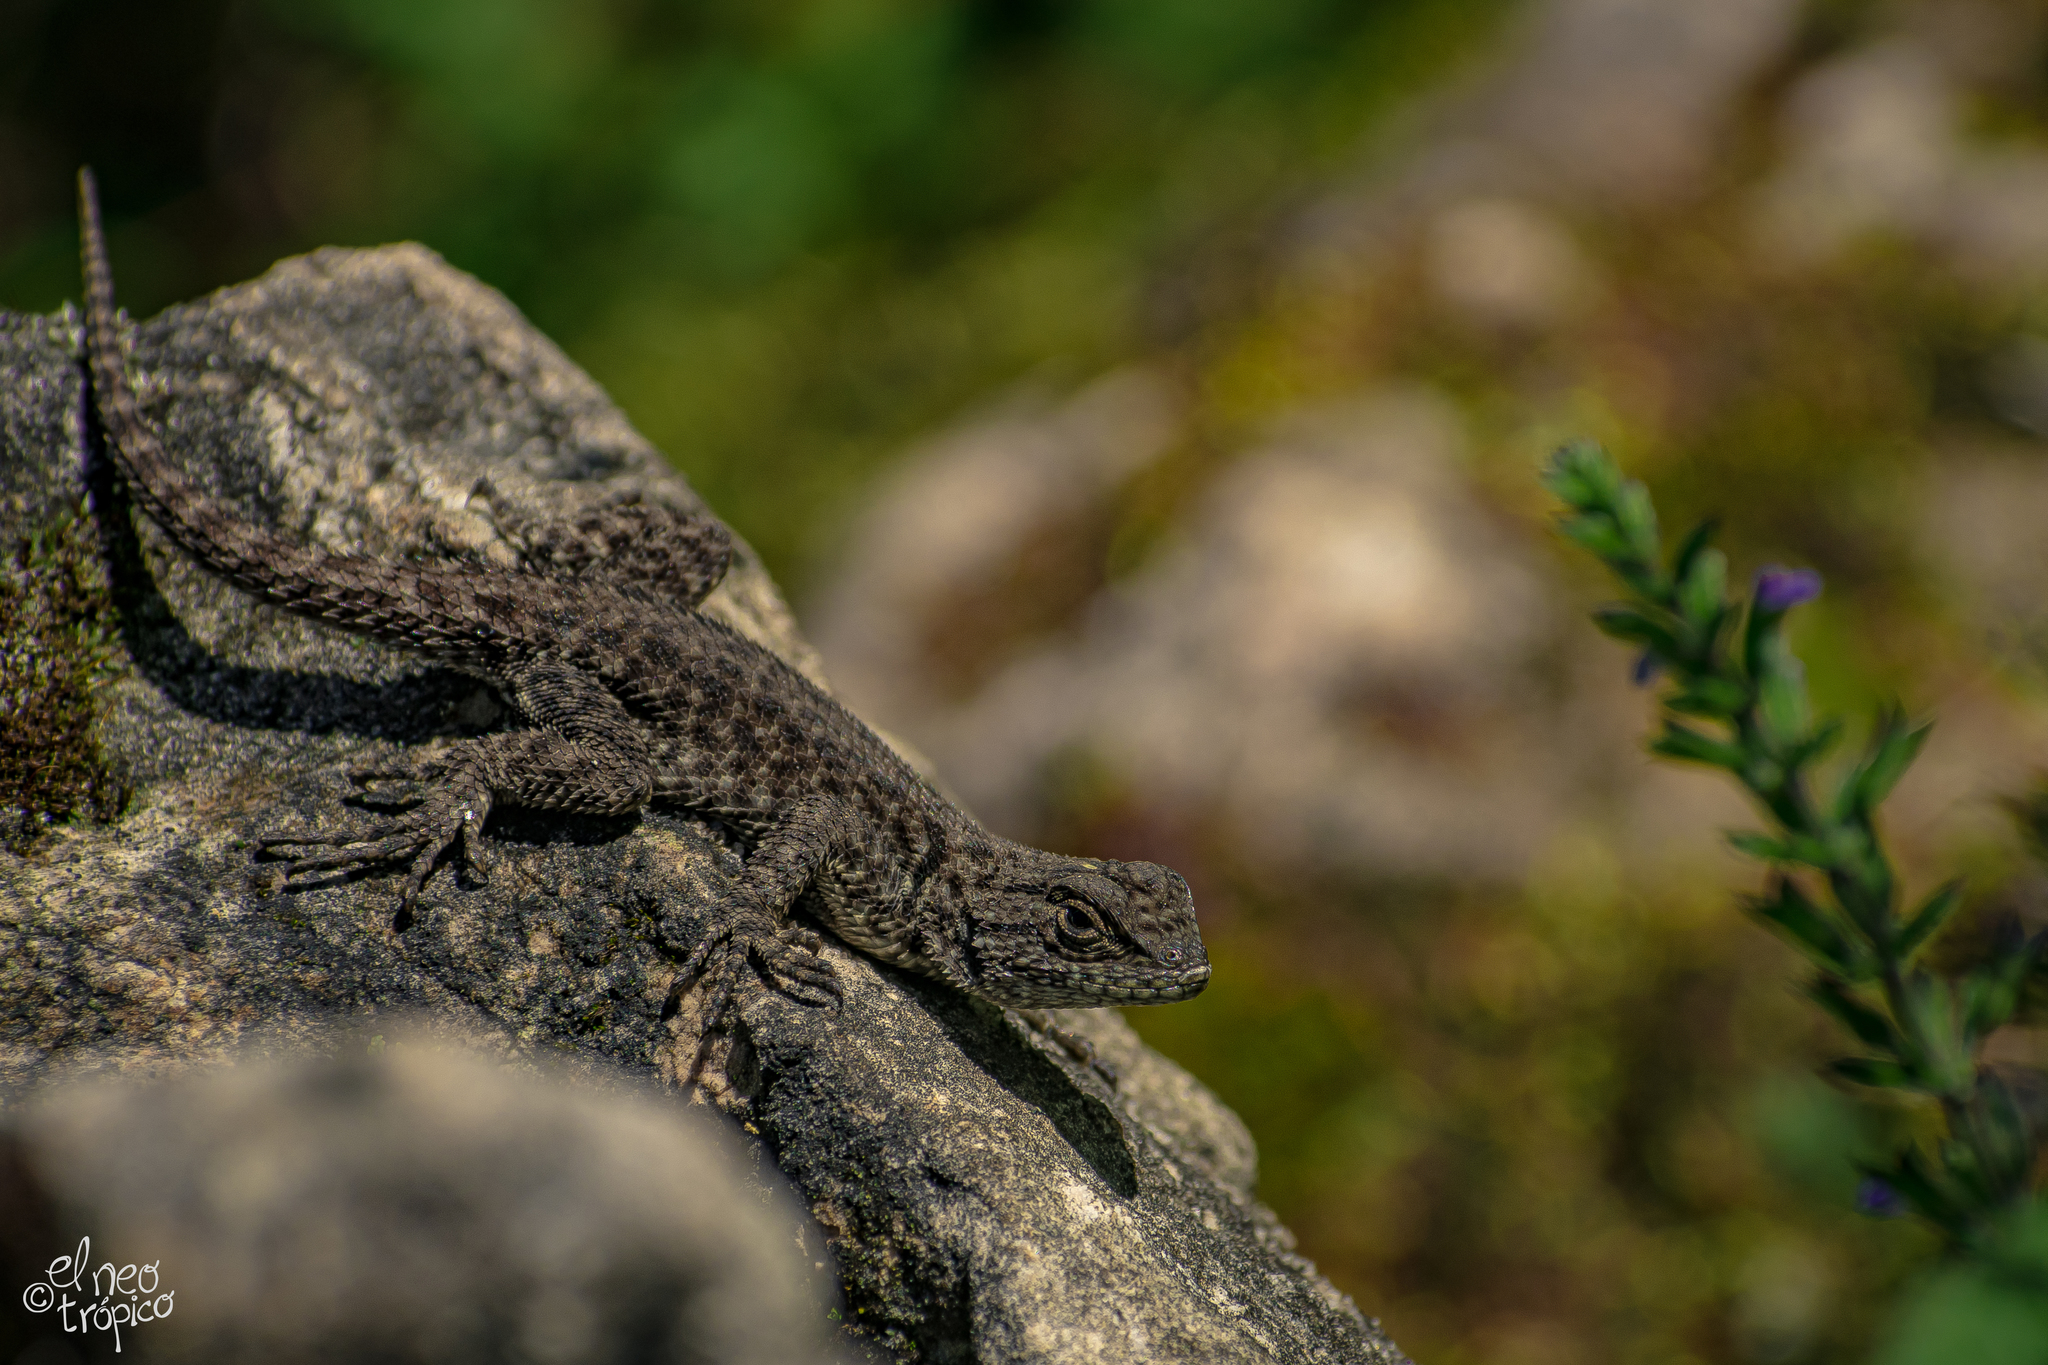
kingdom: Animalia
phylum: Chordata
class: Squamata
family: Phrynosomatidae
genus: Sceloporus
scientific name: Sceloporus taeniocnemis
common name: Guatemalan emerald spiny lizard
